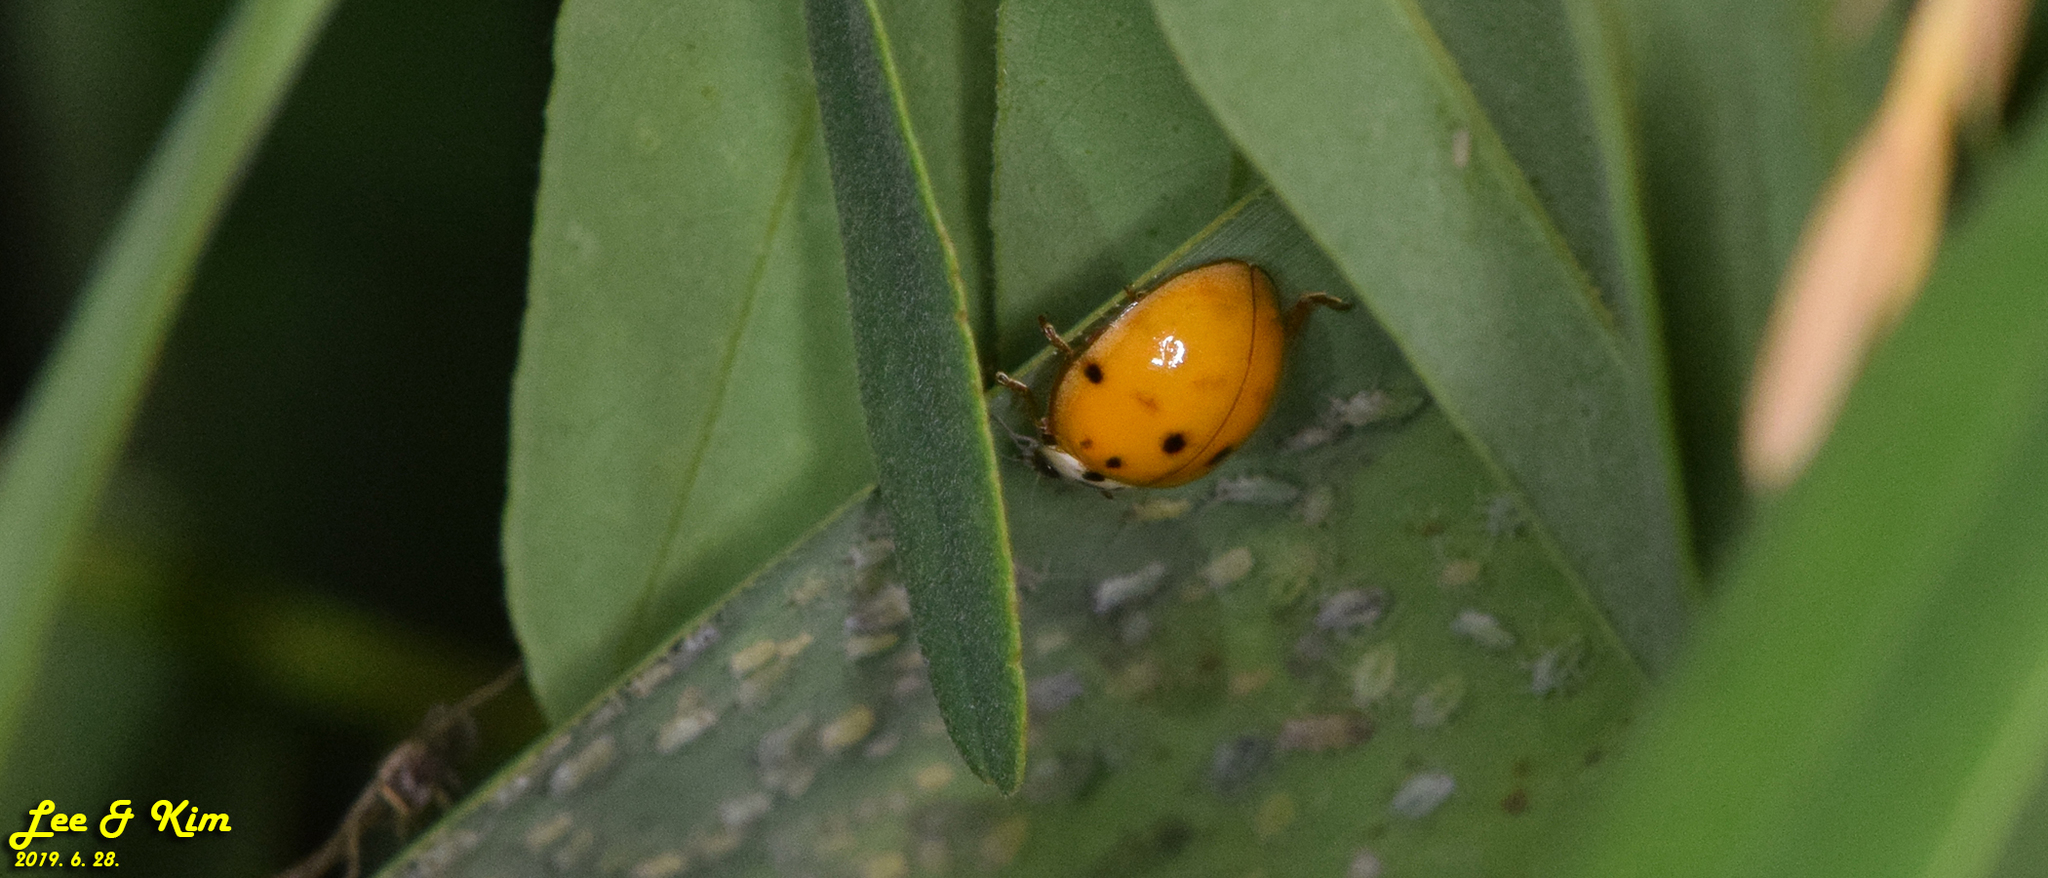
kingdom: Animalia
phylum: Arthropoda
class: Insecta
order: Coleoptera
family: Coccinellidae
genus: Harmonia
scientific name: Harmonia axyridis
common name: Harlequin ladybird
